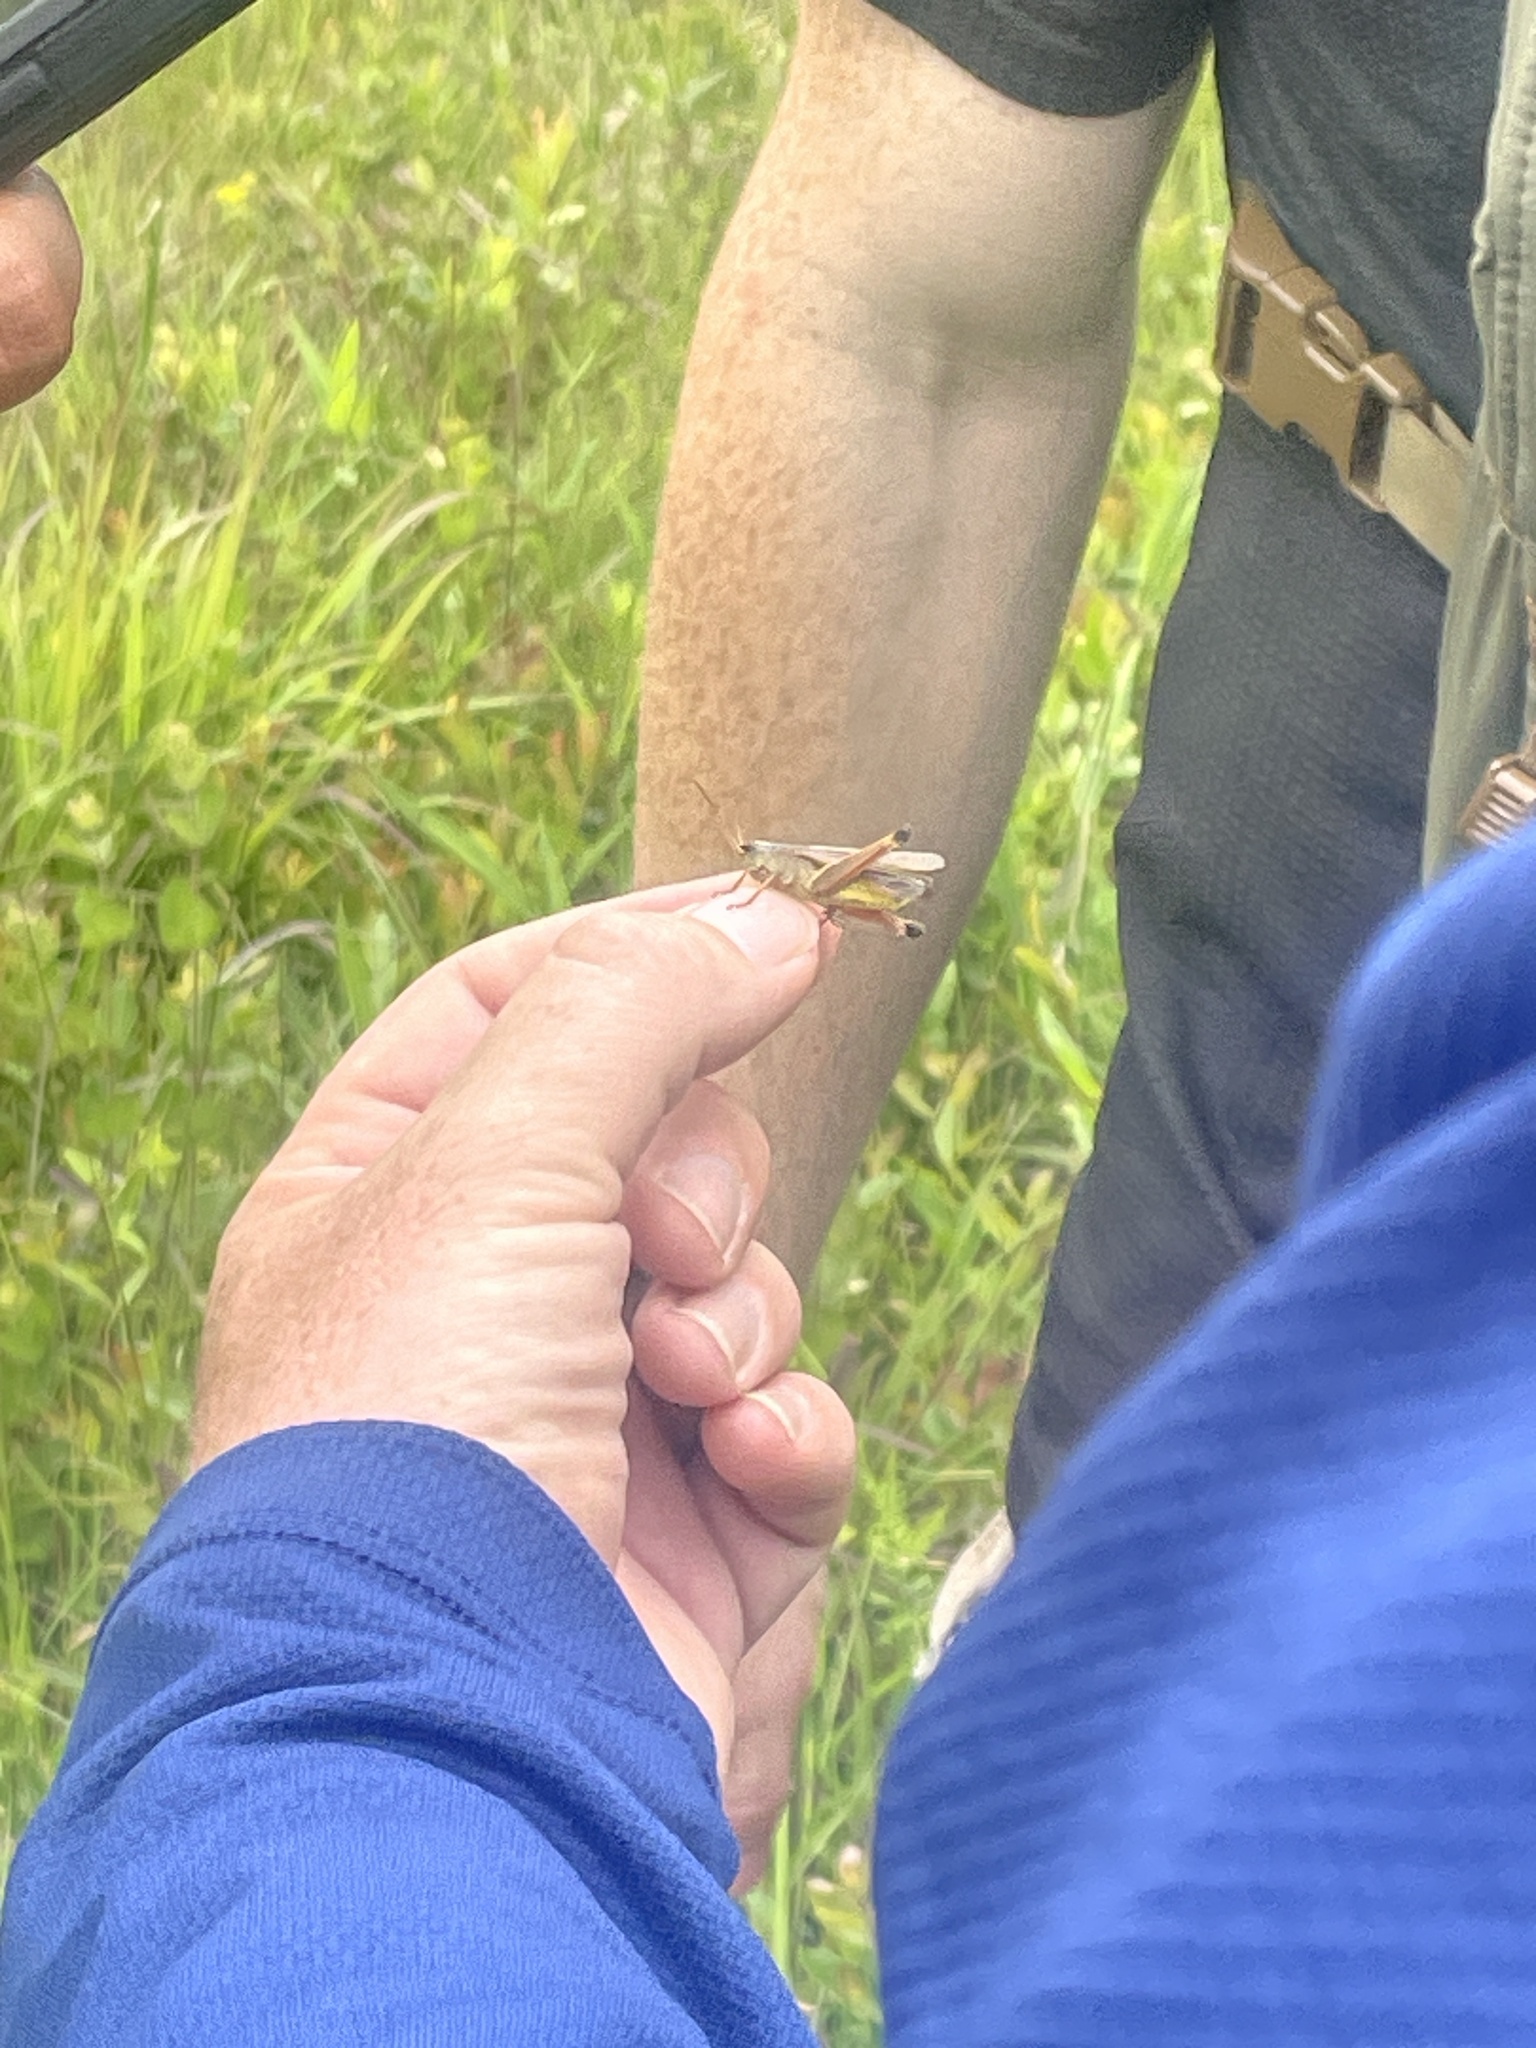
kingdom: Animalia
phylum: Arthropoda
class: Insecta
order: Orthoptera
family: Acrididae
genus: Stethophyma
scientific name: Stethophyma celatum
